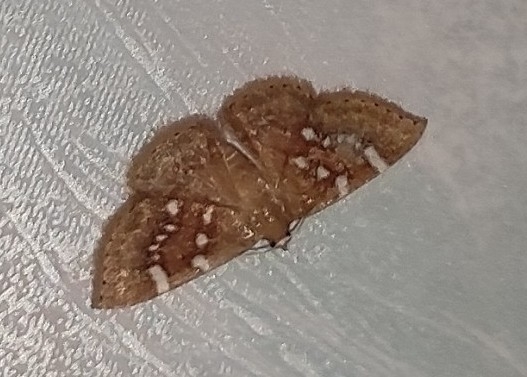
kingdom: Animalia
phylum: Arthropoda
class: Insecta
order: Lepidoptera
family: Noctuidae
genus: Enispa
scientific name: Enispa
